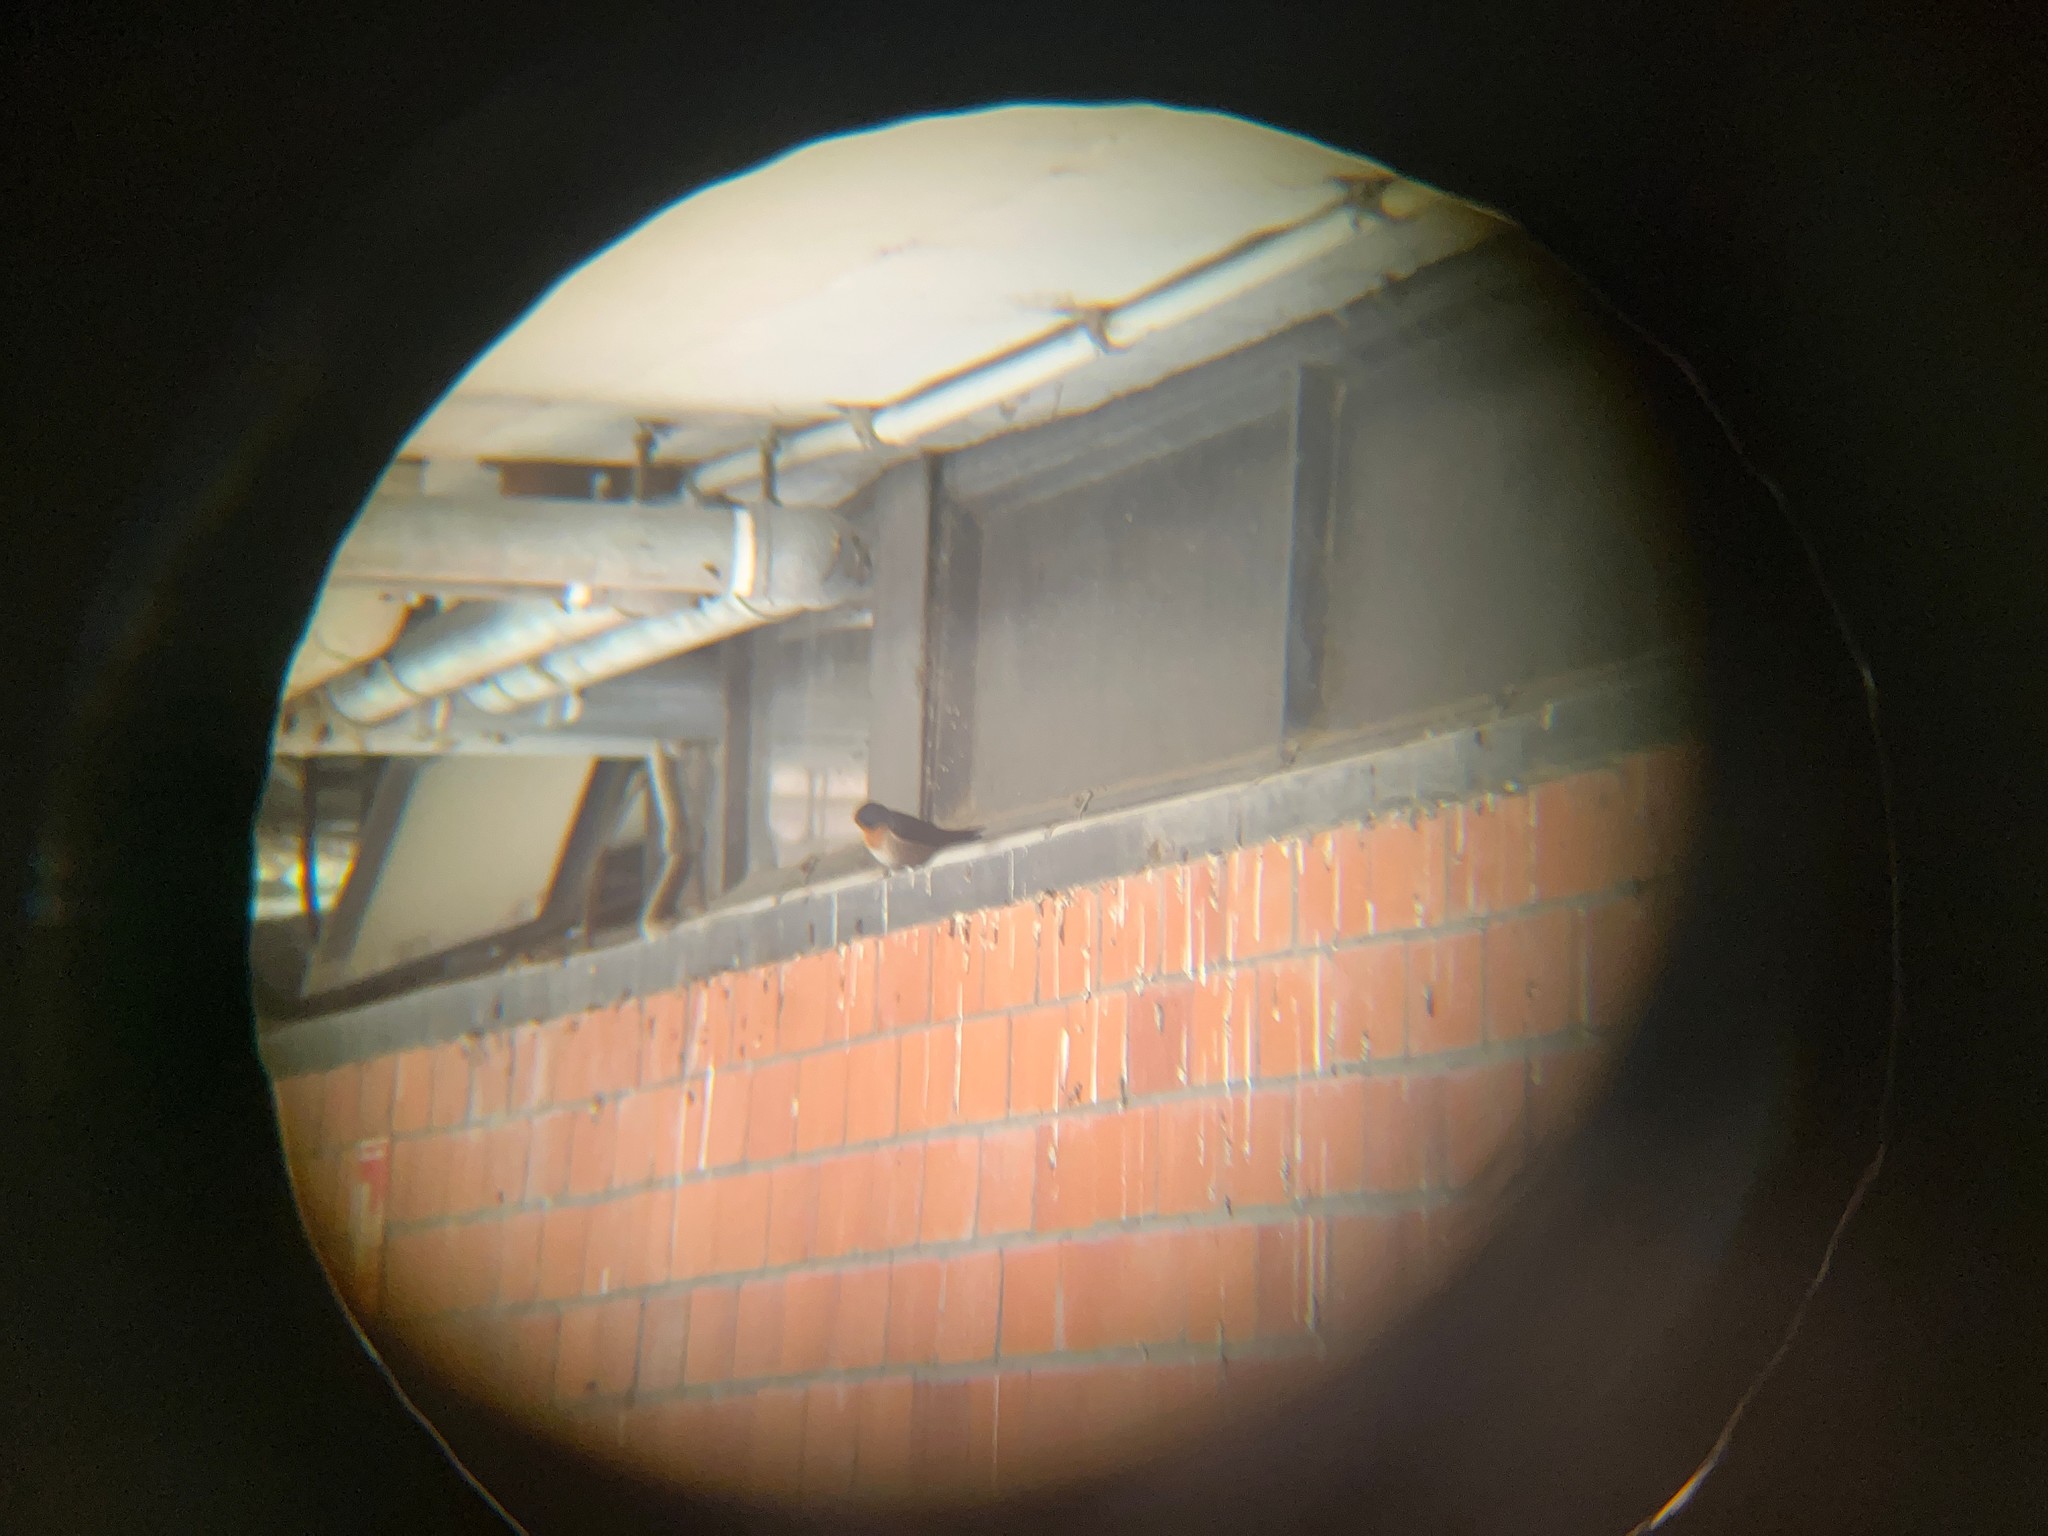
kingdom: Animalia
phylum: Chordata
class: Aves
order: Passeriformes
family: Hirundinidae
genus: Hirundo
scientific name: Hirundo neoxena
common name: Welcome swallow
